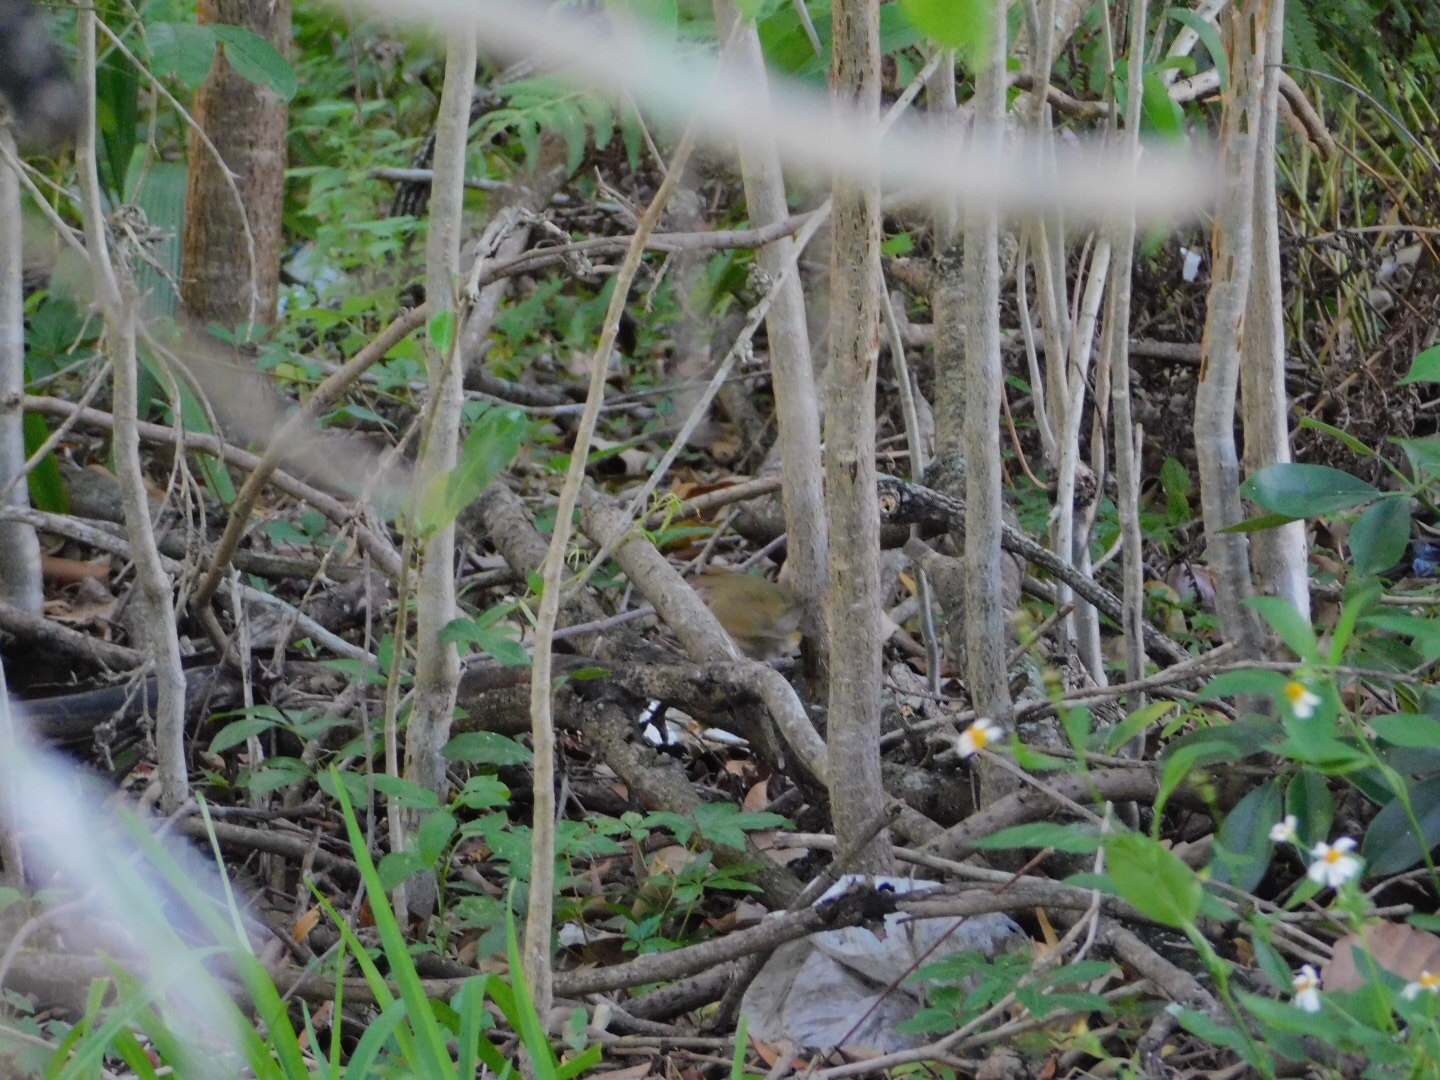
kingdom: Animalia
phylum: Chordata
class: Aves
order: Passeriformes
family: Parulidae
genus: Seiurus
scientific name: Seiurus aurocapilla
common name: Ovenbird
